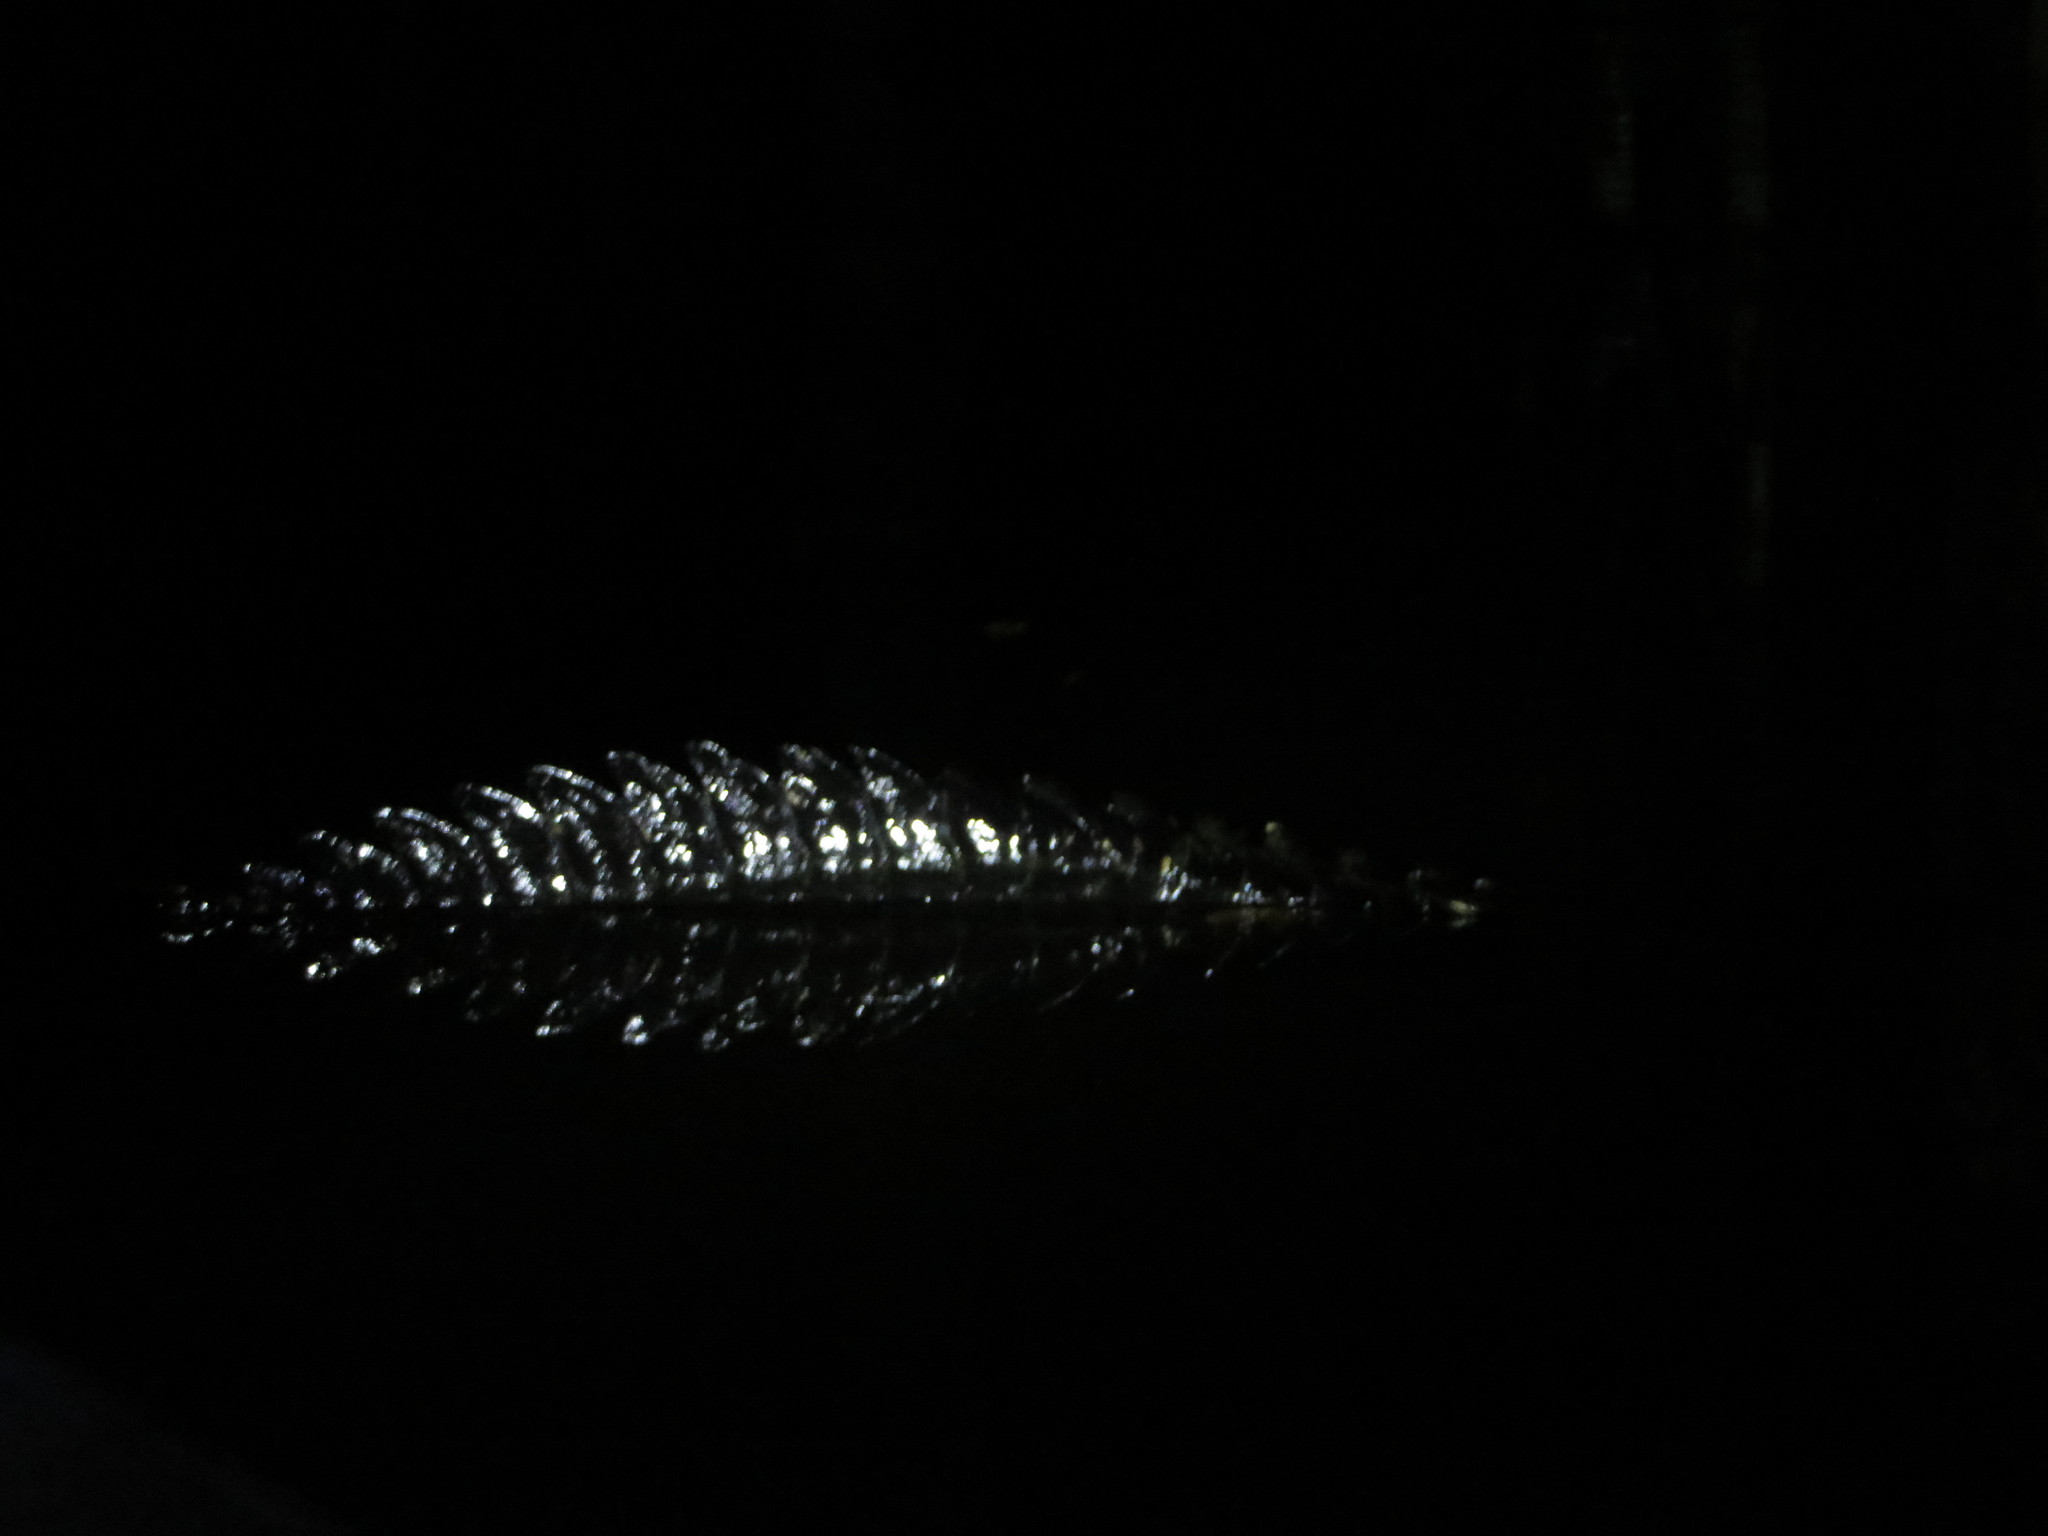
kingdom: Animalia
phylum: Chordata
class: Crocodylia
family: Alligatoridae
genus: Melanosuchus
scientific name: Melanosuchus niger
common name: Black caiman
